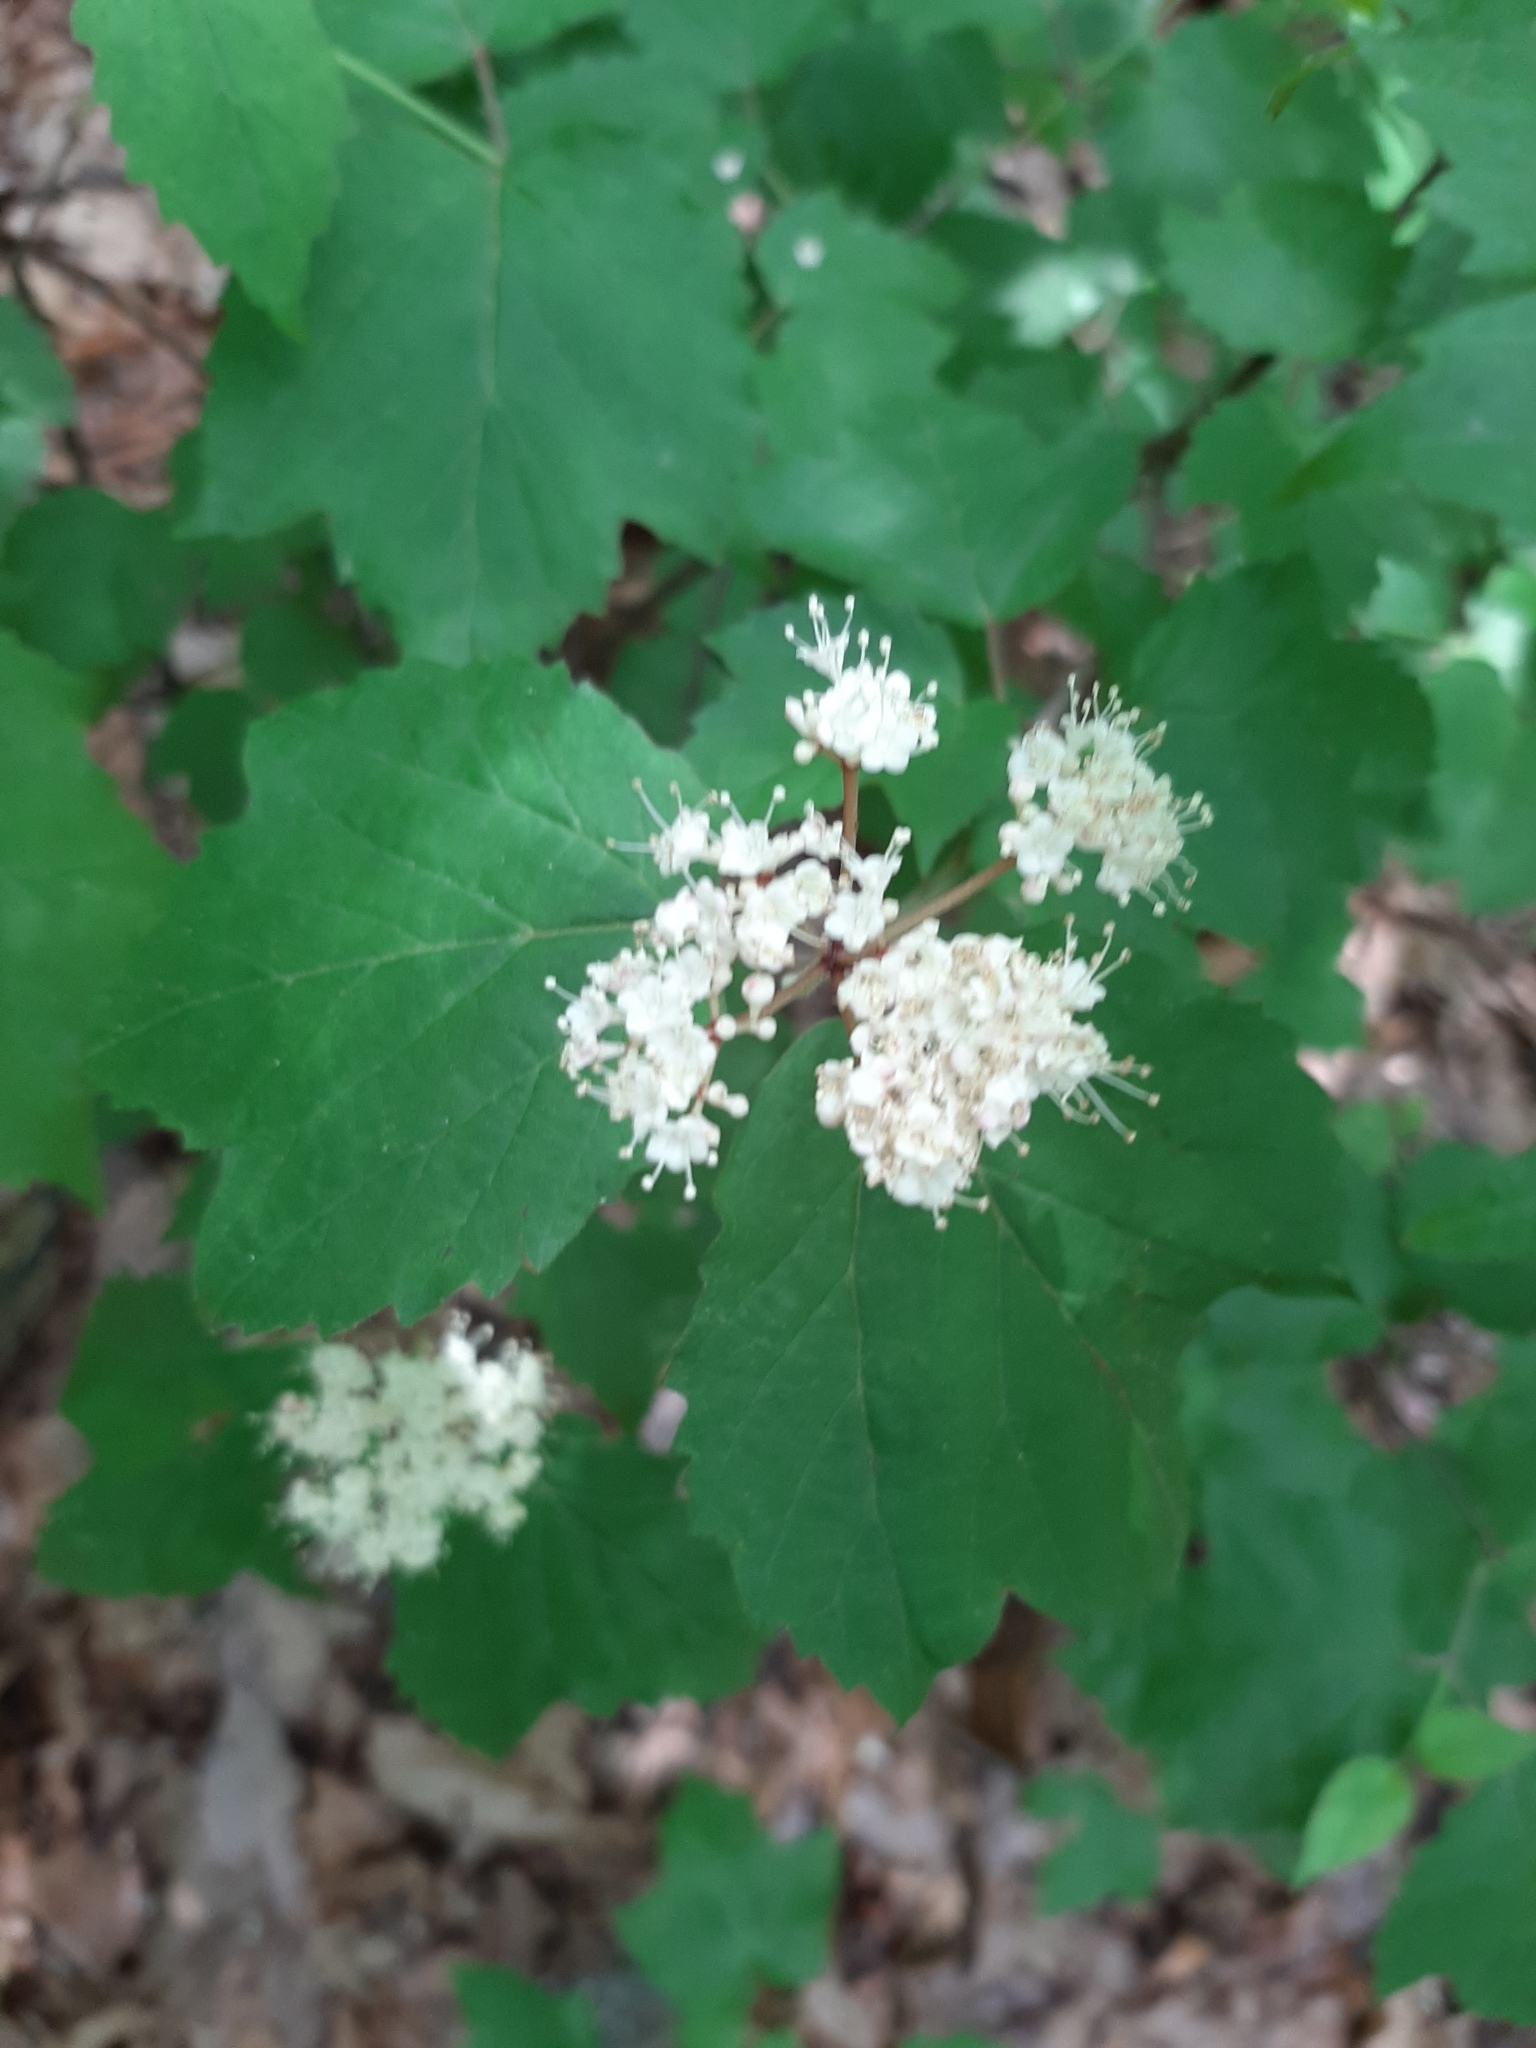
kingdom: Plantae
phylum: Tracheophyta
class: Magnoliopsida
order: Dipsacales
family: Viburnaceae
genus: Viburnum
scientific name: Viburnum acerifolium
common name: Dockmackie
